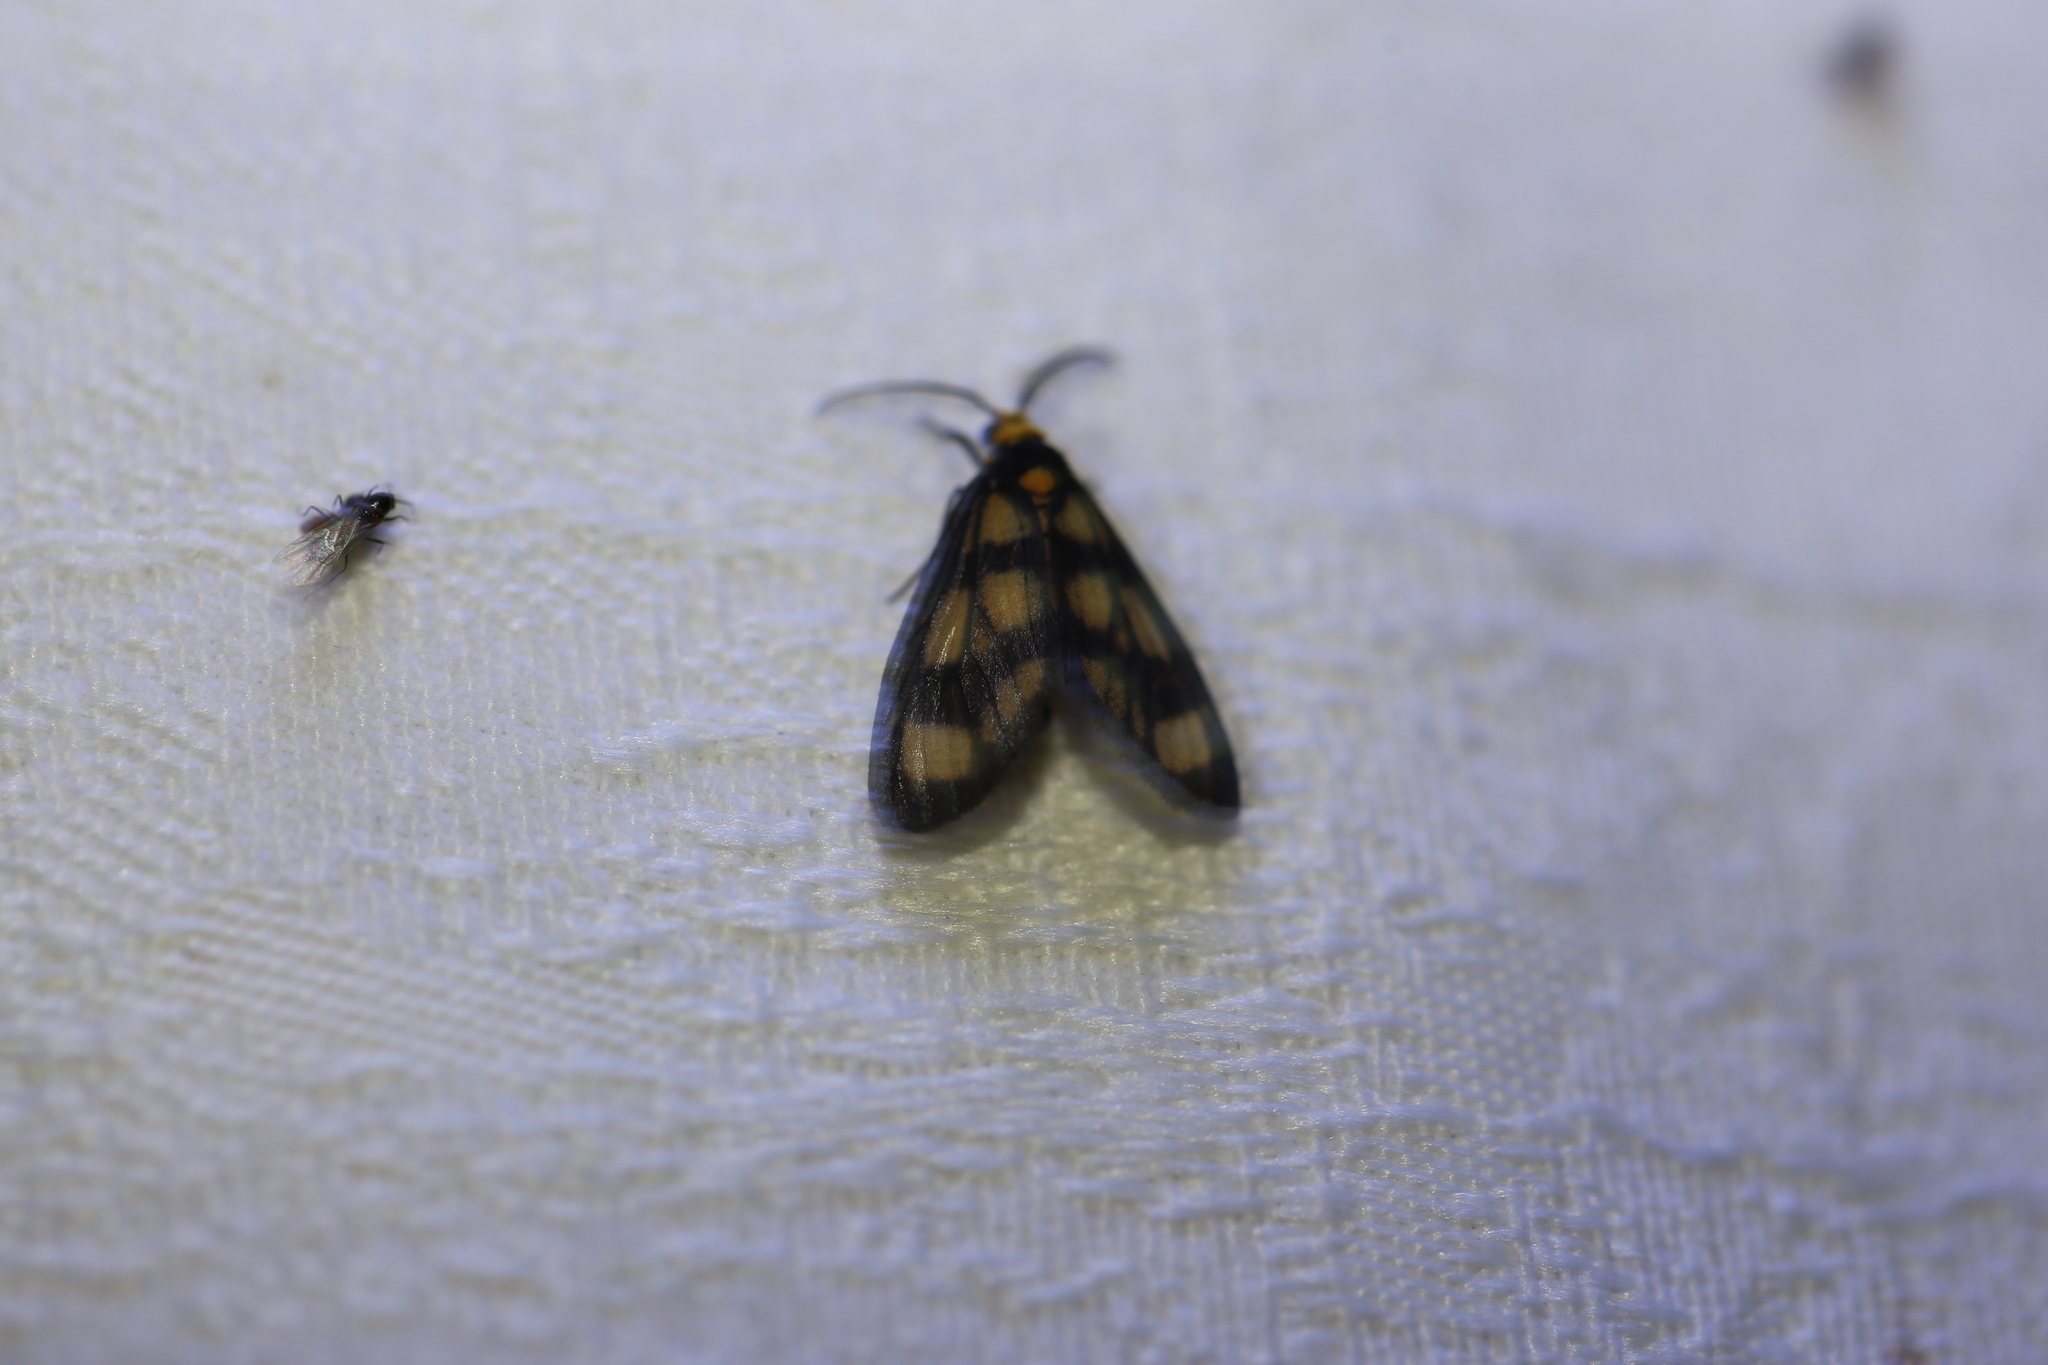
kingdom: Animalia
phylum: Arthropoda
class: Insecta
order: Lepidoptera
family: Erebidae
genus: Asura
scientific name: Asura bipars
